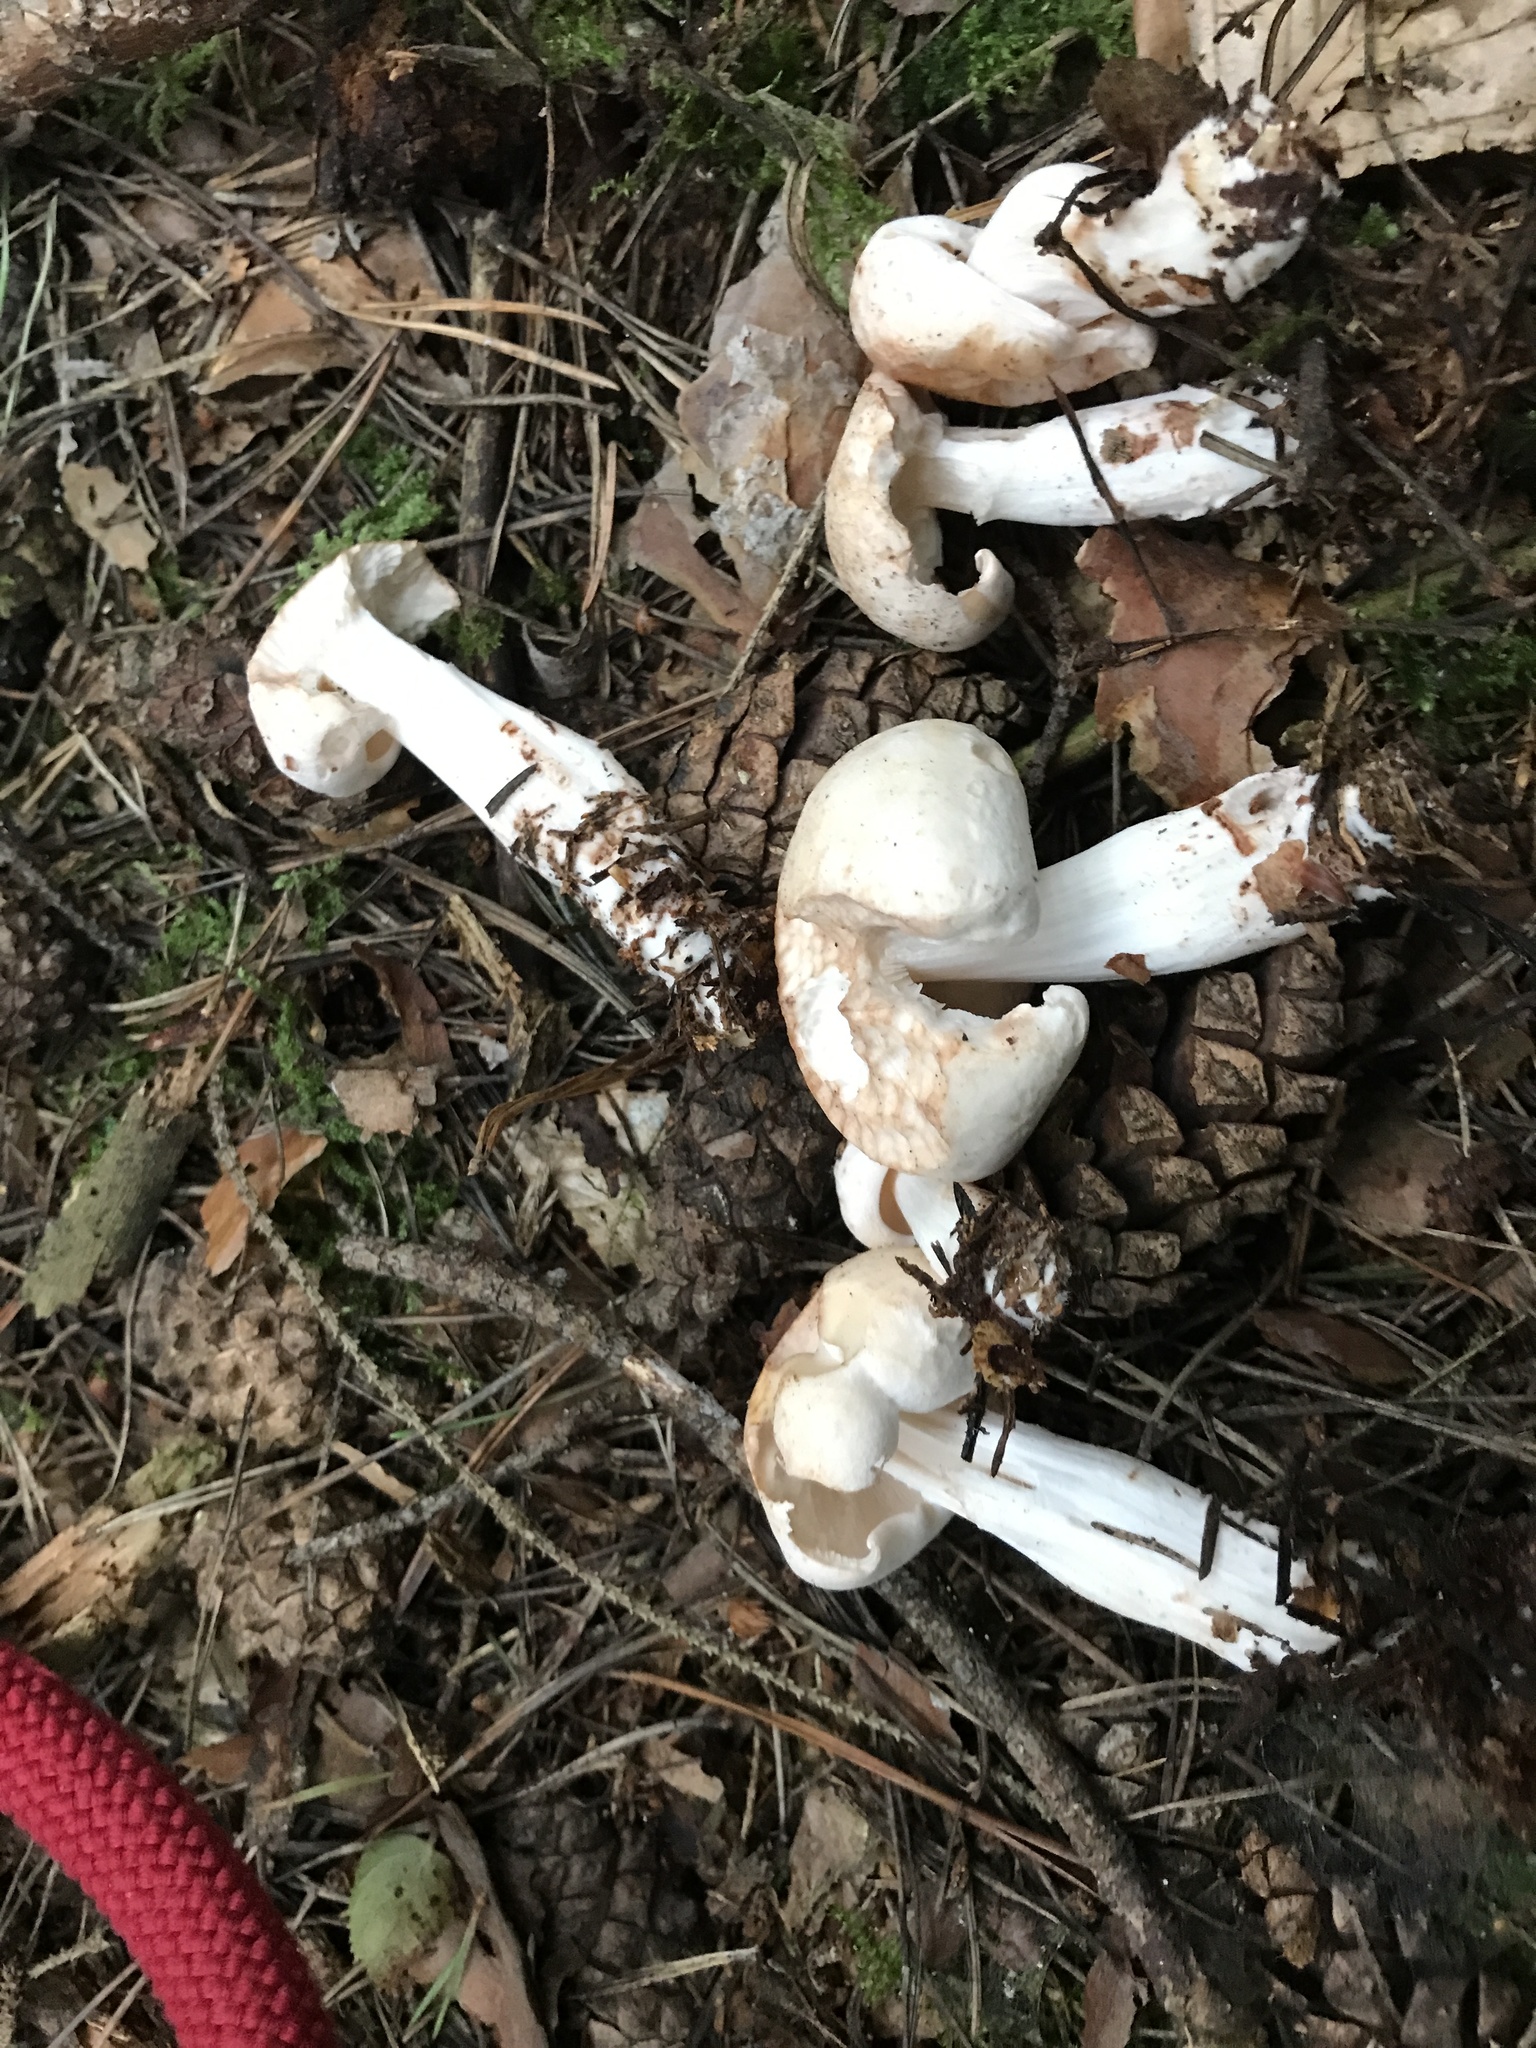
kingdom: Fungi
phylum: Basidiomycota
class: Agaricomycetes
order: Agaricales
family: Omphalotaceae
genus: Rhodocollybia
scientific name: Rhodocollybia maculata
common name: Spotted tough-shank
